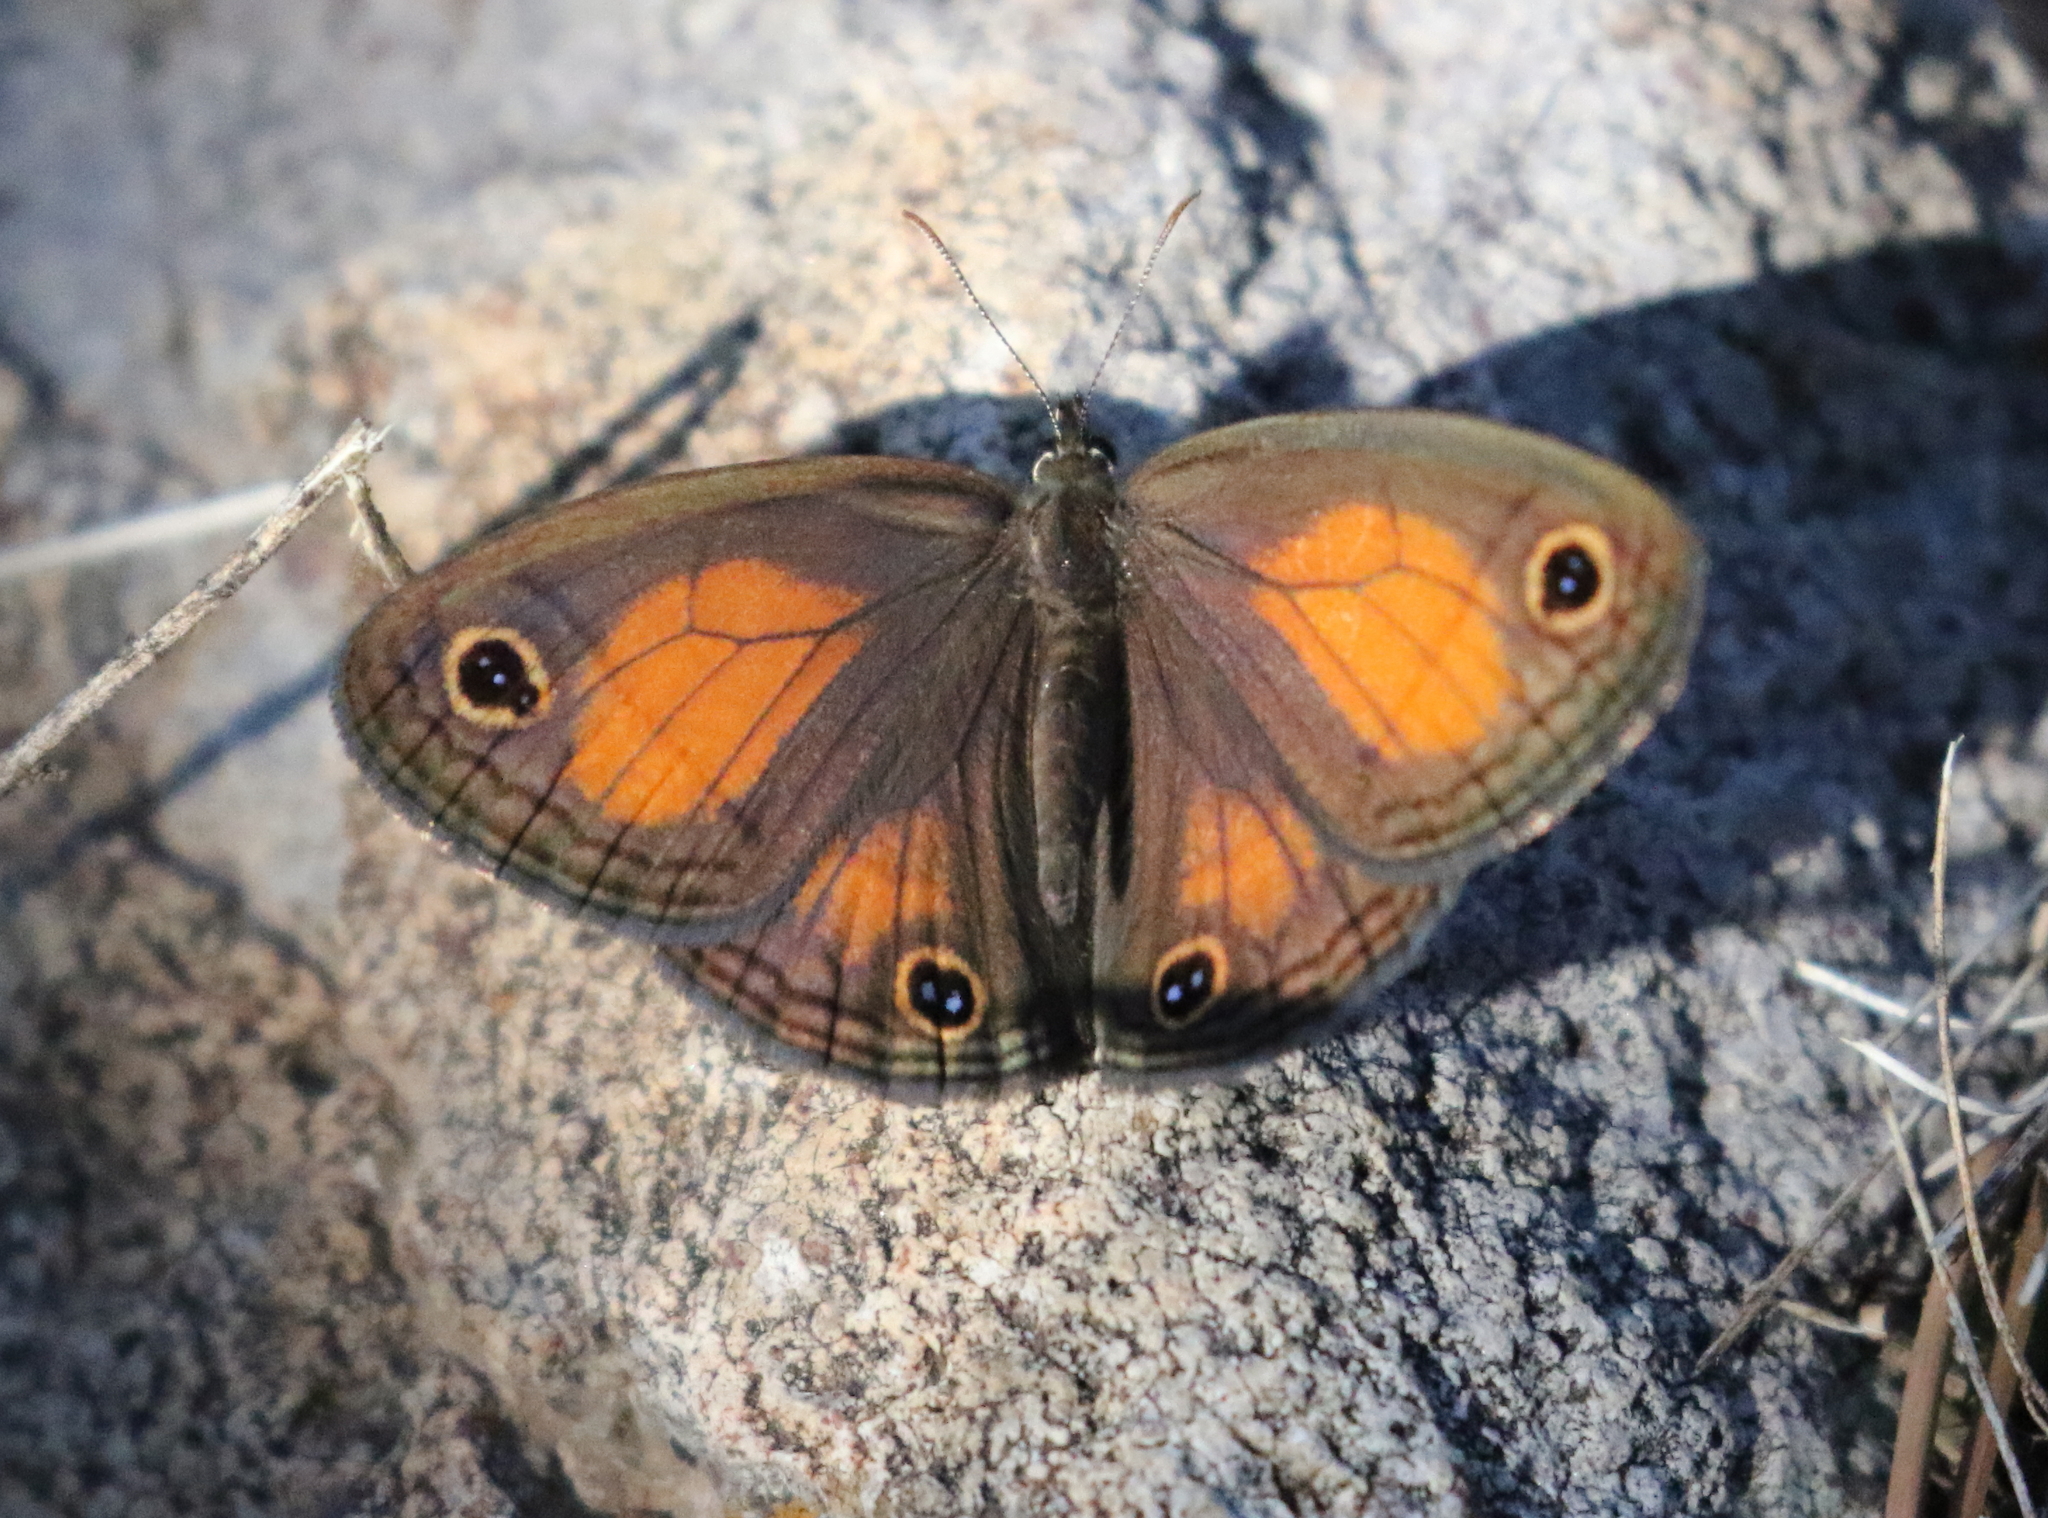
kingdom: Animalia
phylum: Arthropoda
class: Insecta
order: Lepidoptera
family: Nymphalidae
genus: Euptychia
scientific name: Euptychia Cissia rubricata
